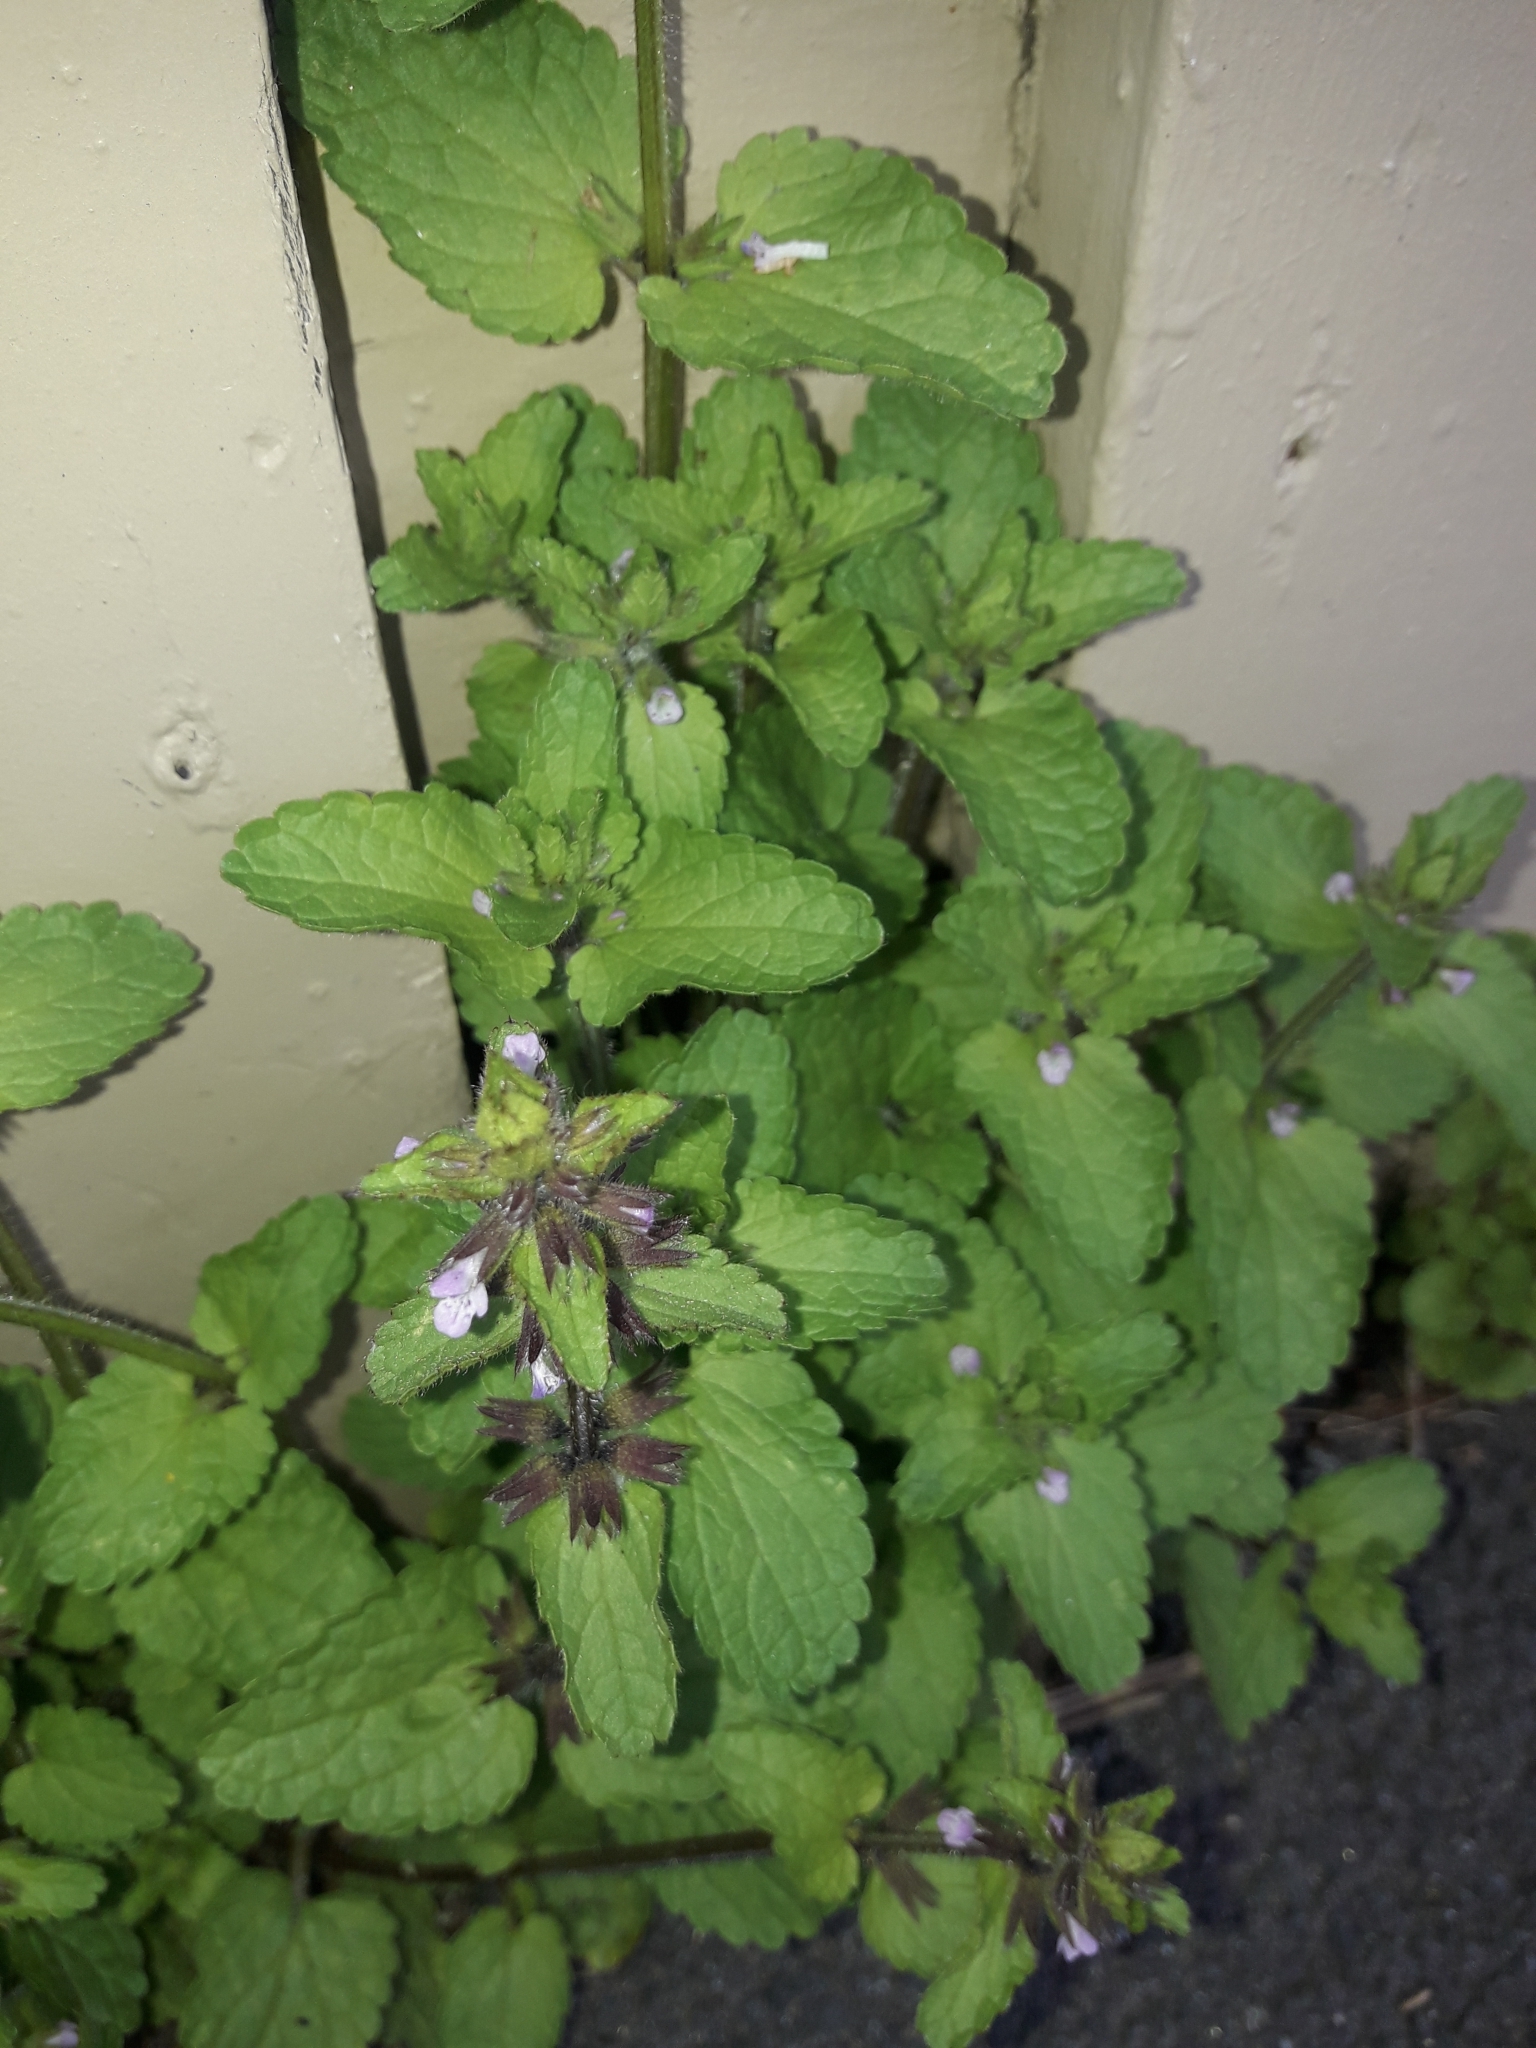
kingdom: Plantae
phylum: Tracheophyta
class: Magnoliopsida
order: Lamiales
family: Lamiaceae
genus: Stachys
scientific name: Stachys arvensis
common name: Field woundwort
